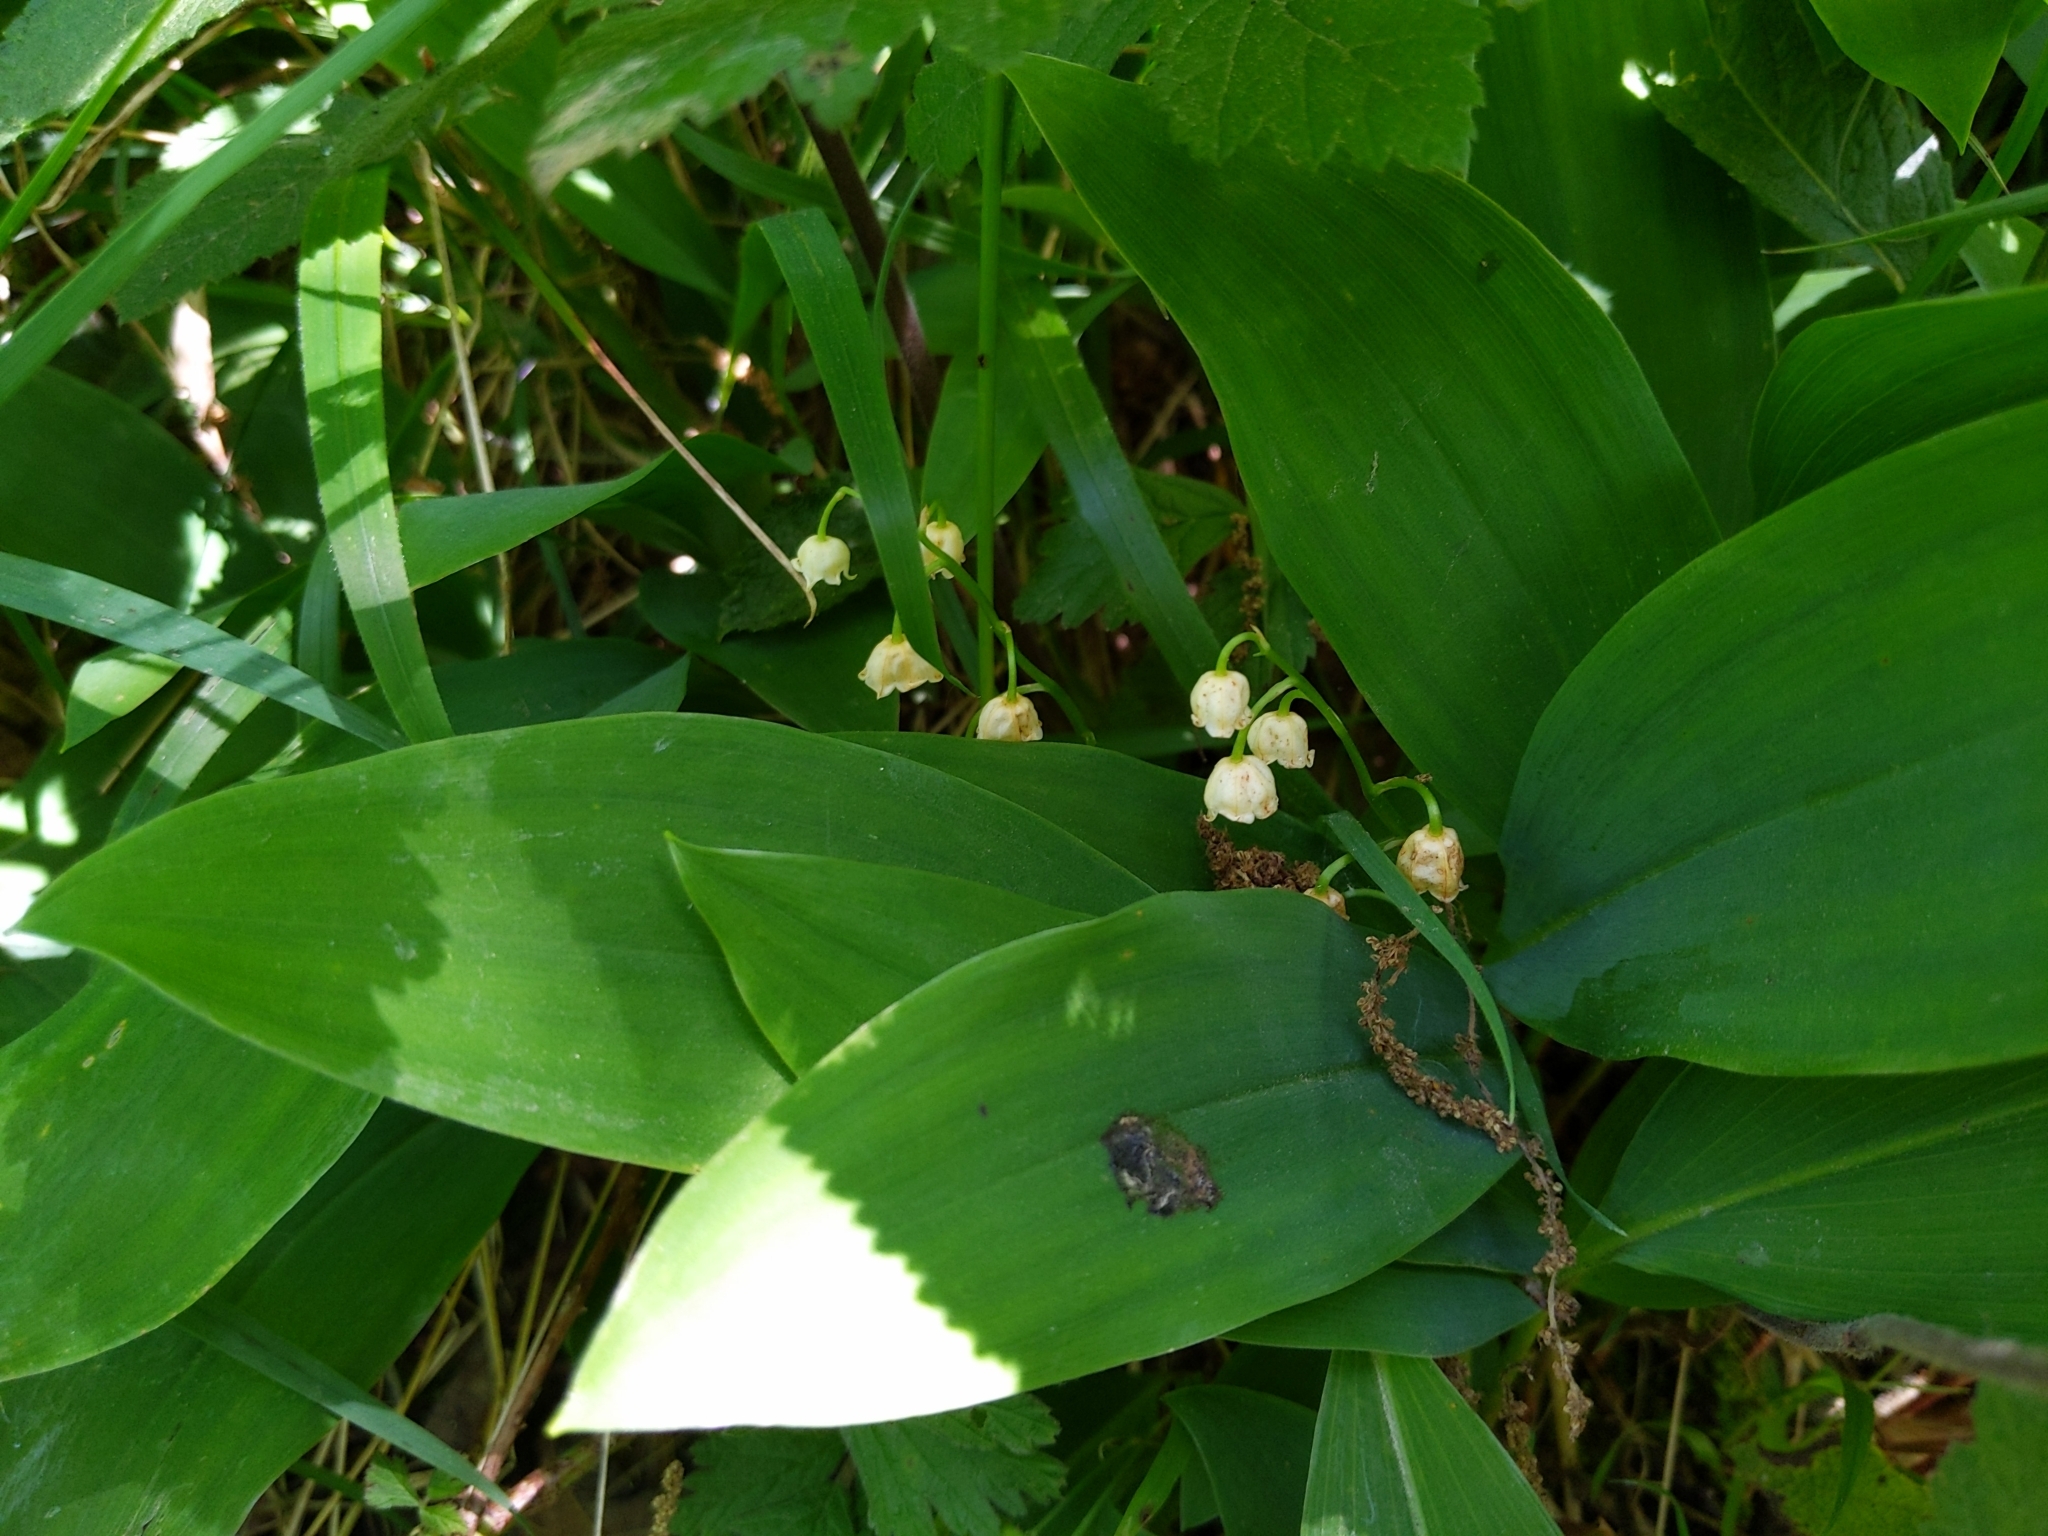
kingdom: Plantae
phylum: Tracheophyta
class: Liliopsida
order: Asparagales
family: Asparagaceae
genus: Convallaria
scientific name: Convallaria majalis
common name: Lily-of-the-valley
